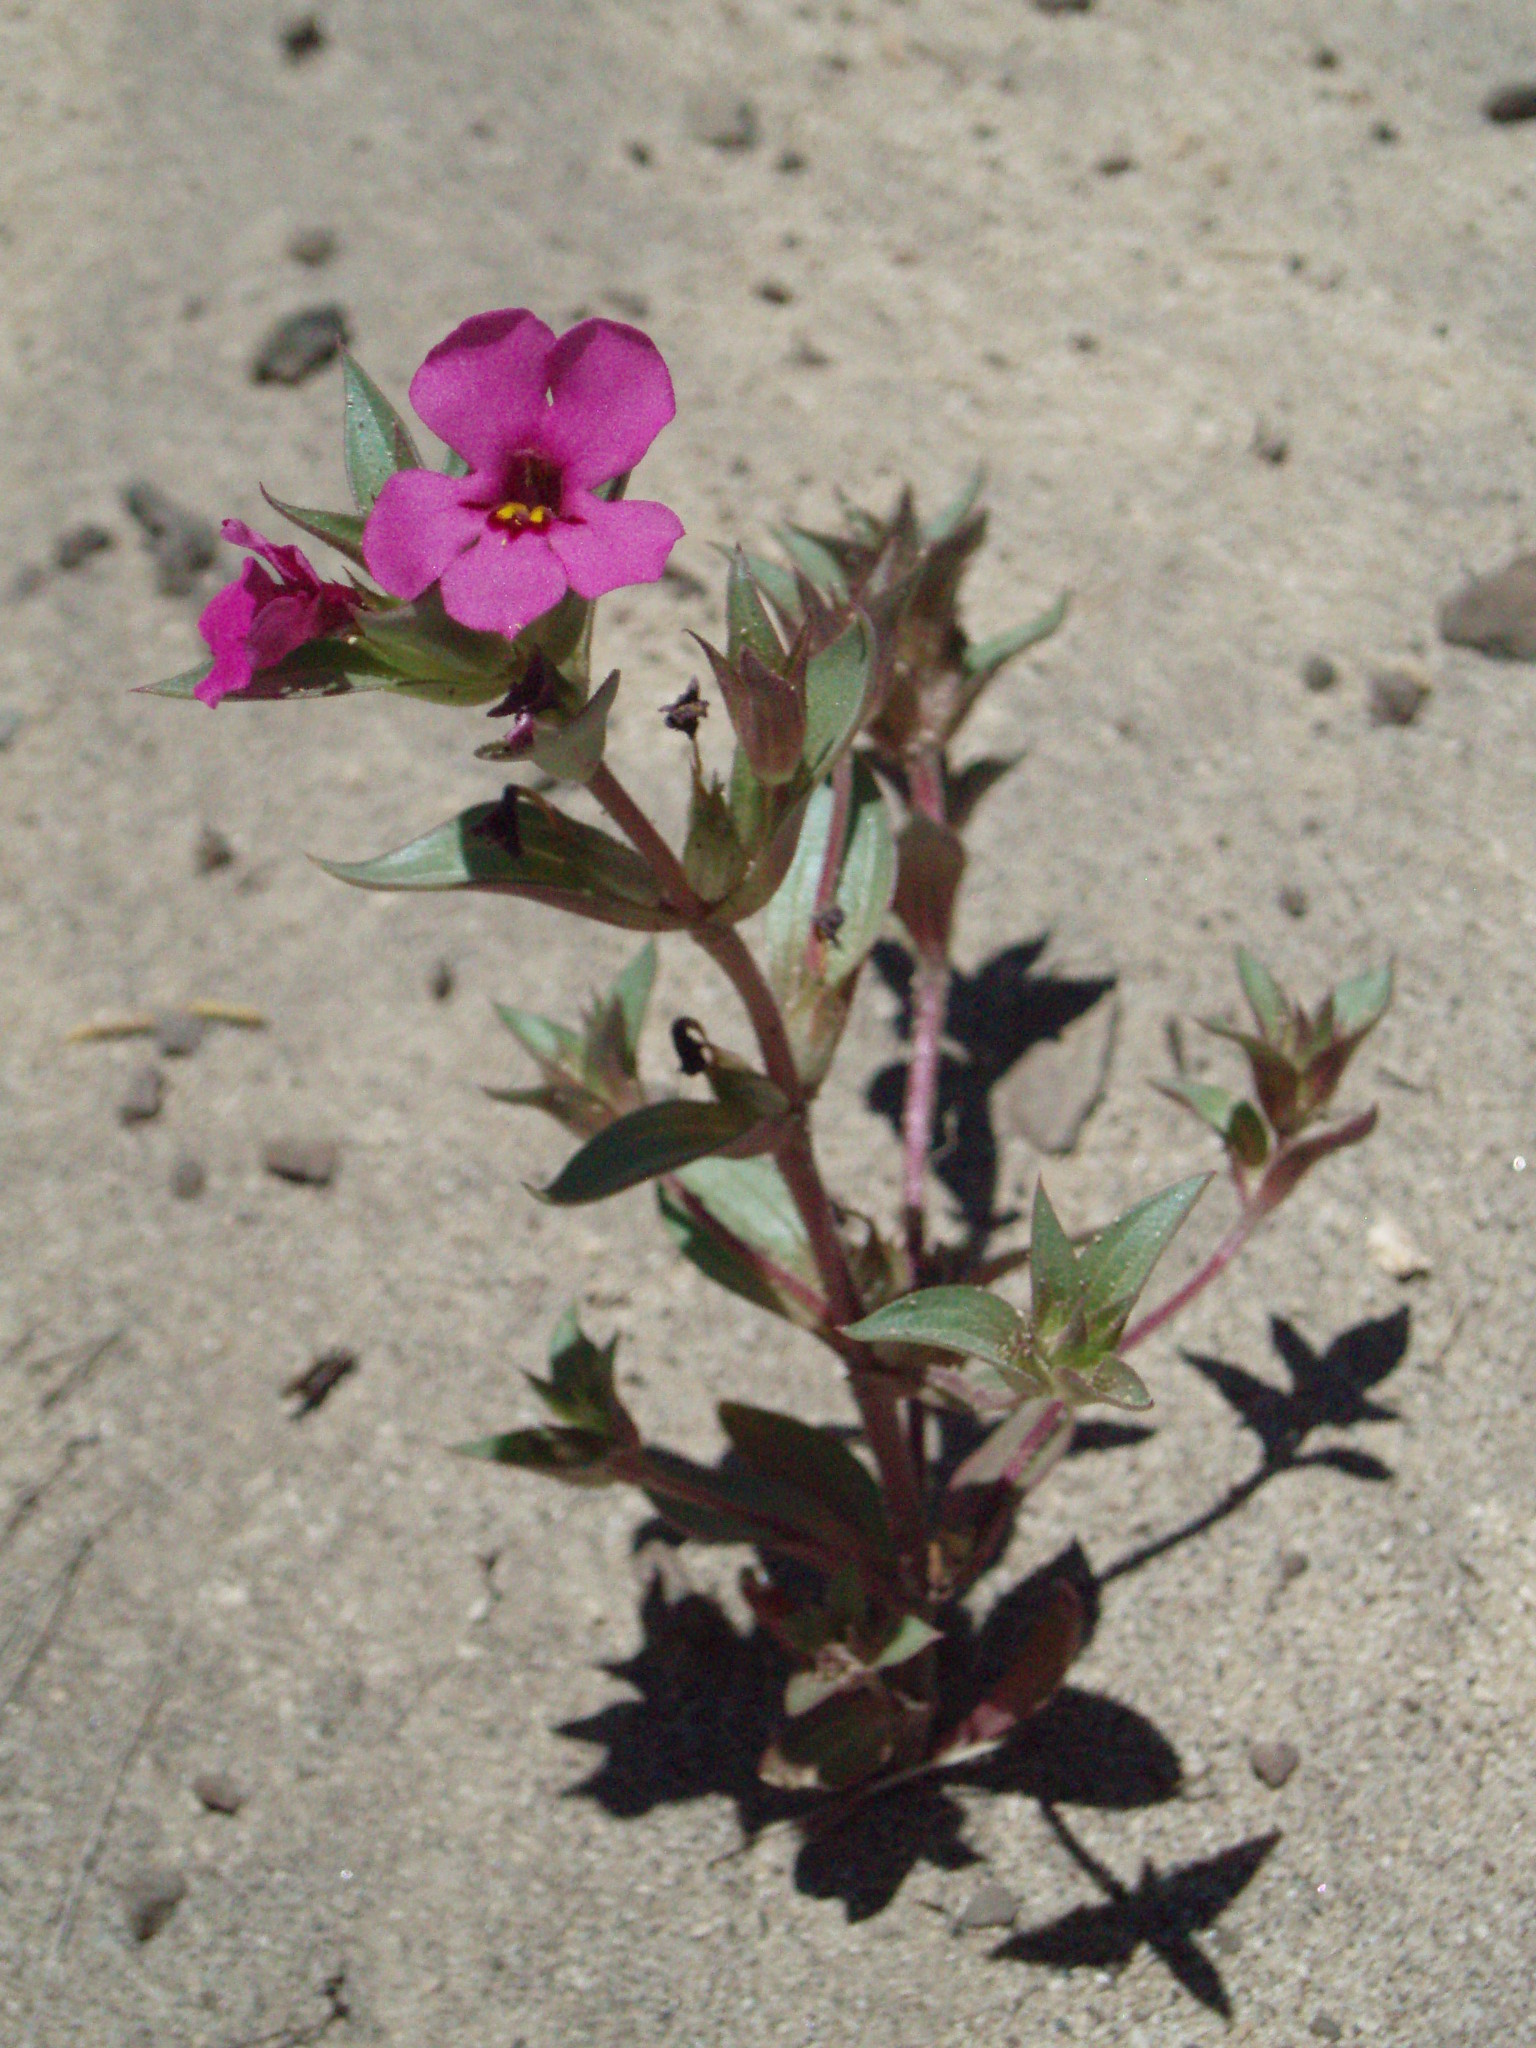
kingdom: Plantae
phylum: Tracheophyta
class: Magnoliopsida
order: Lamiales
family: Phrymaceae
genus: Diplacus
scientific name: Diplacus deschutesensis
